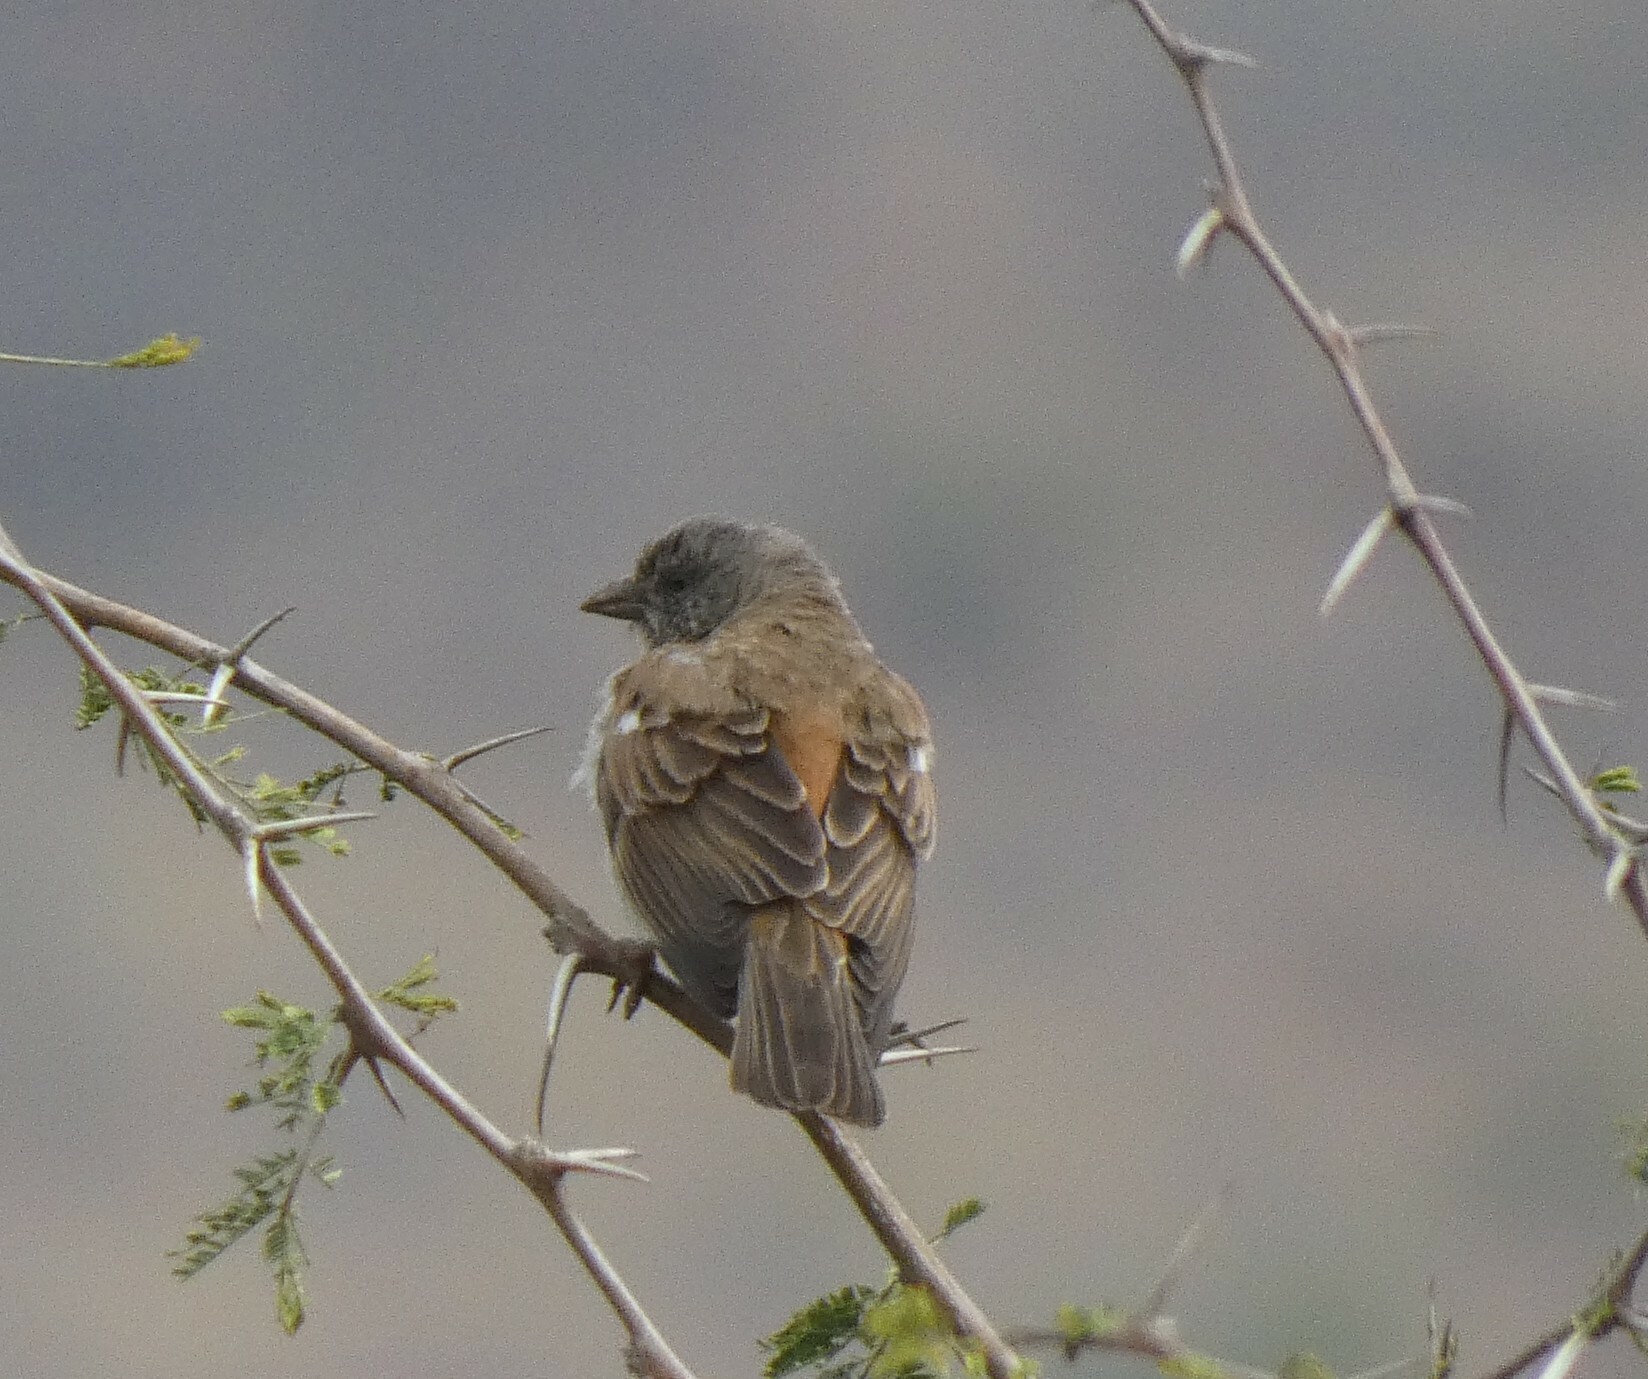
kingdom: Animalia
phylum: Chordata
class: Aves
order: Passeriformes
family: Passeridae
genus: Passer
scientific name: Passer diffusus
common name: Southern grey-headed sparrow
